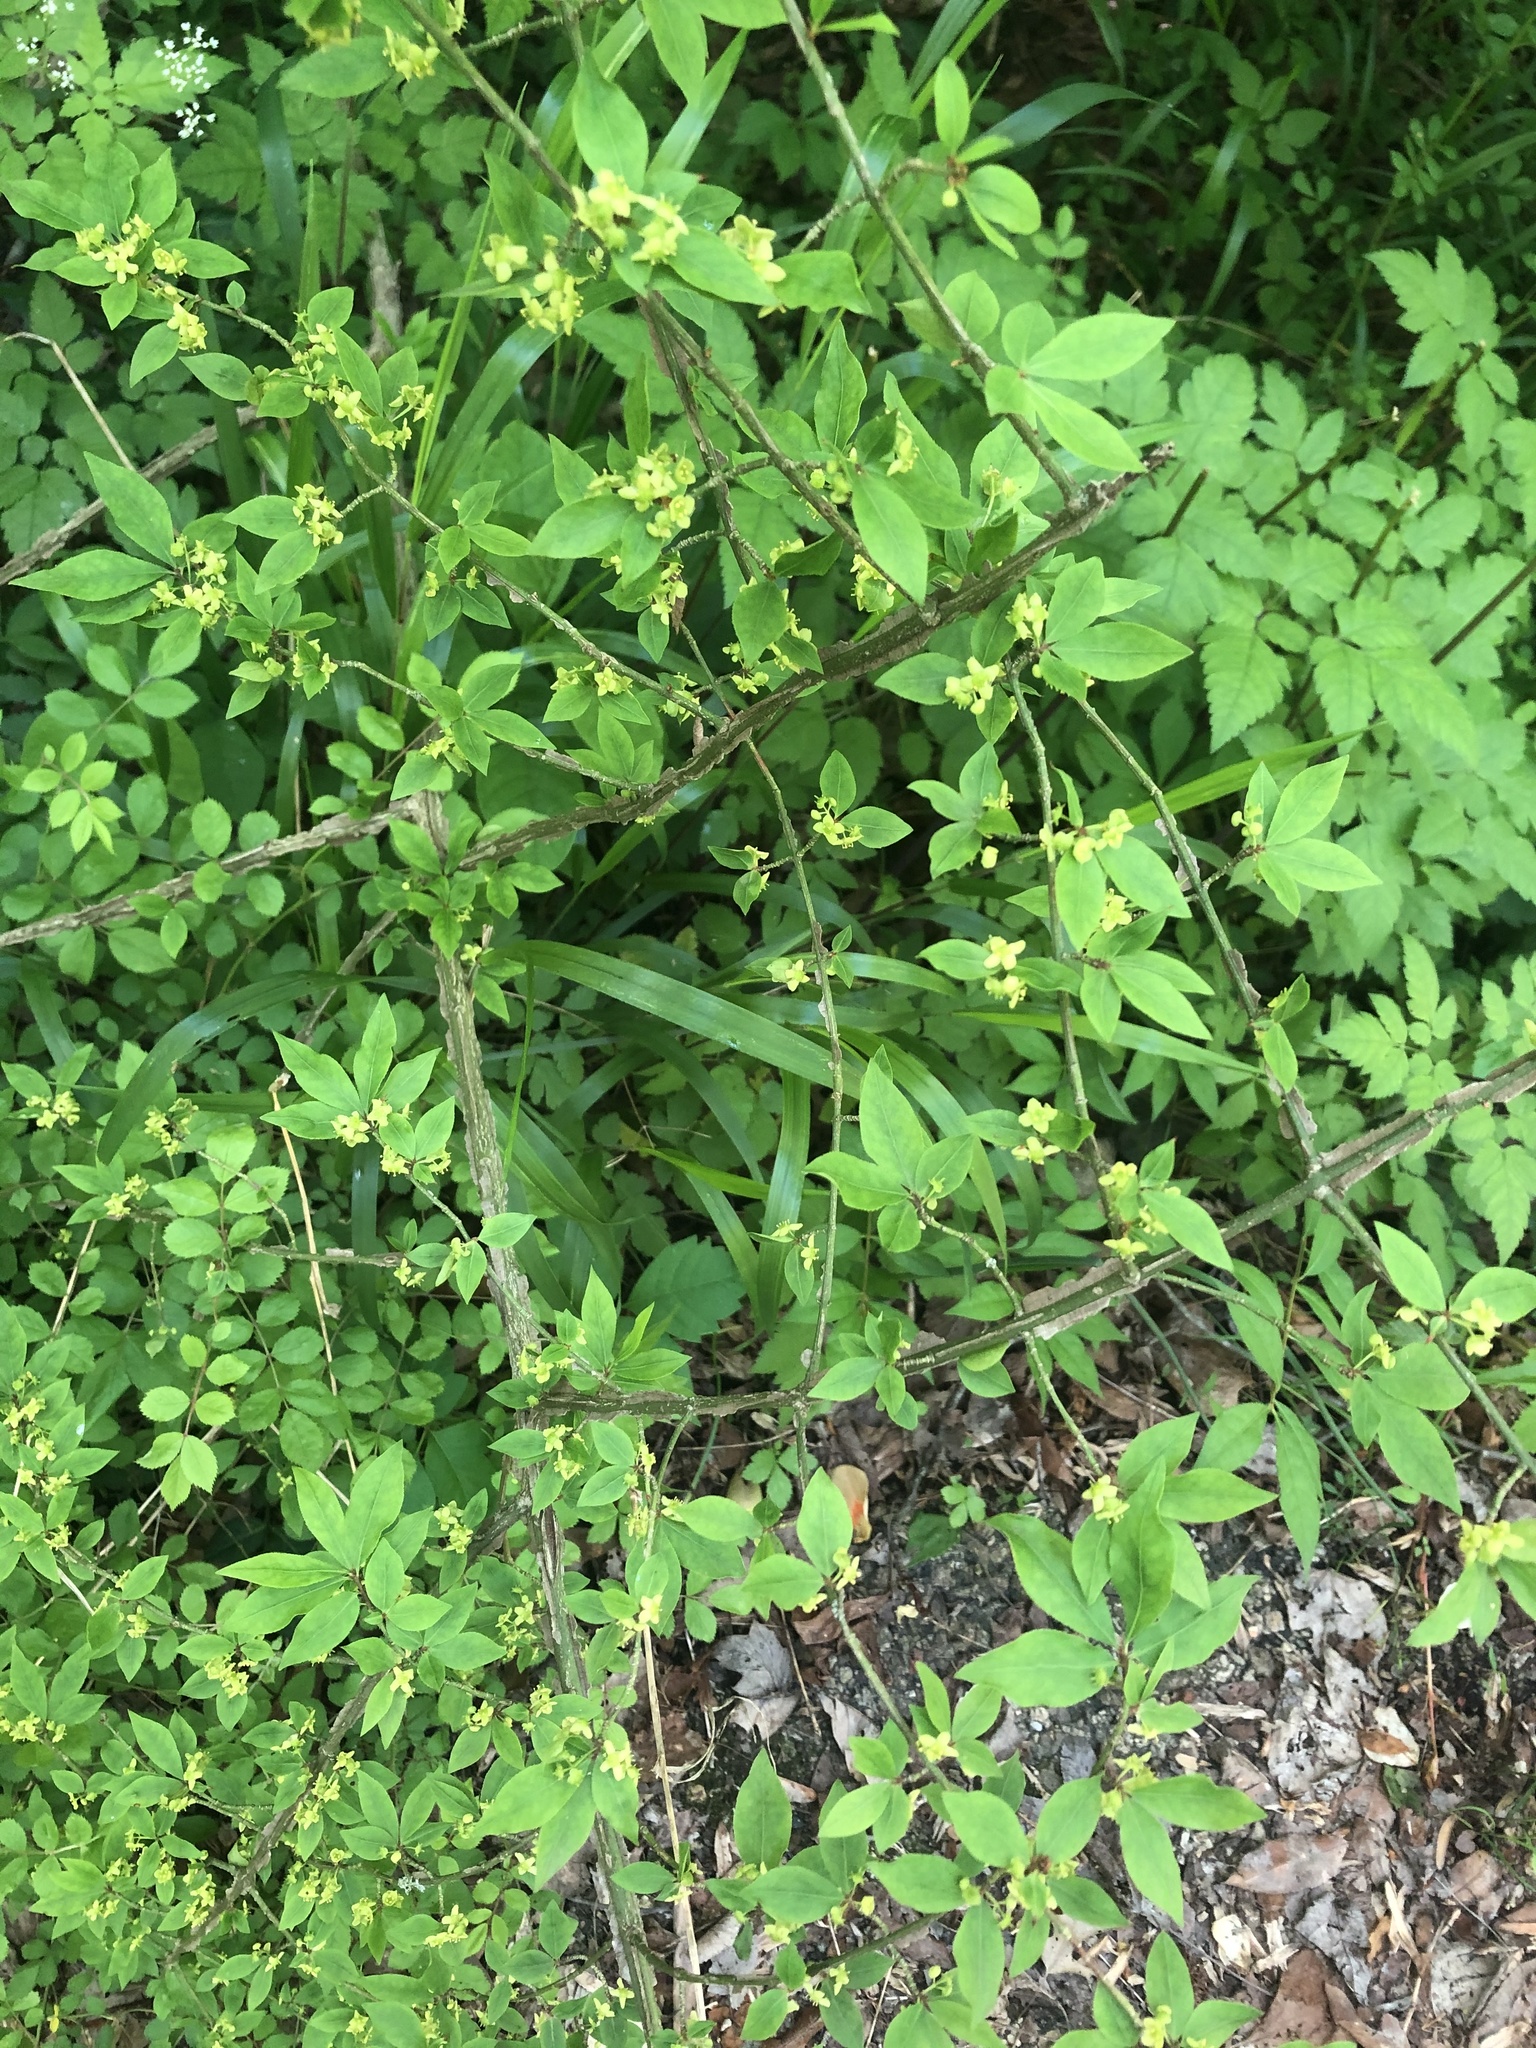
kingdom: Plantae
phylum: Tracheophyta
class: Magnoliopsida
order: Celastrales
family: Celastraceae
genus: Euonymus
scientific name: Euonymus alatus
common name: Winged euonymus
